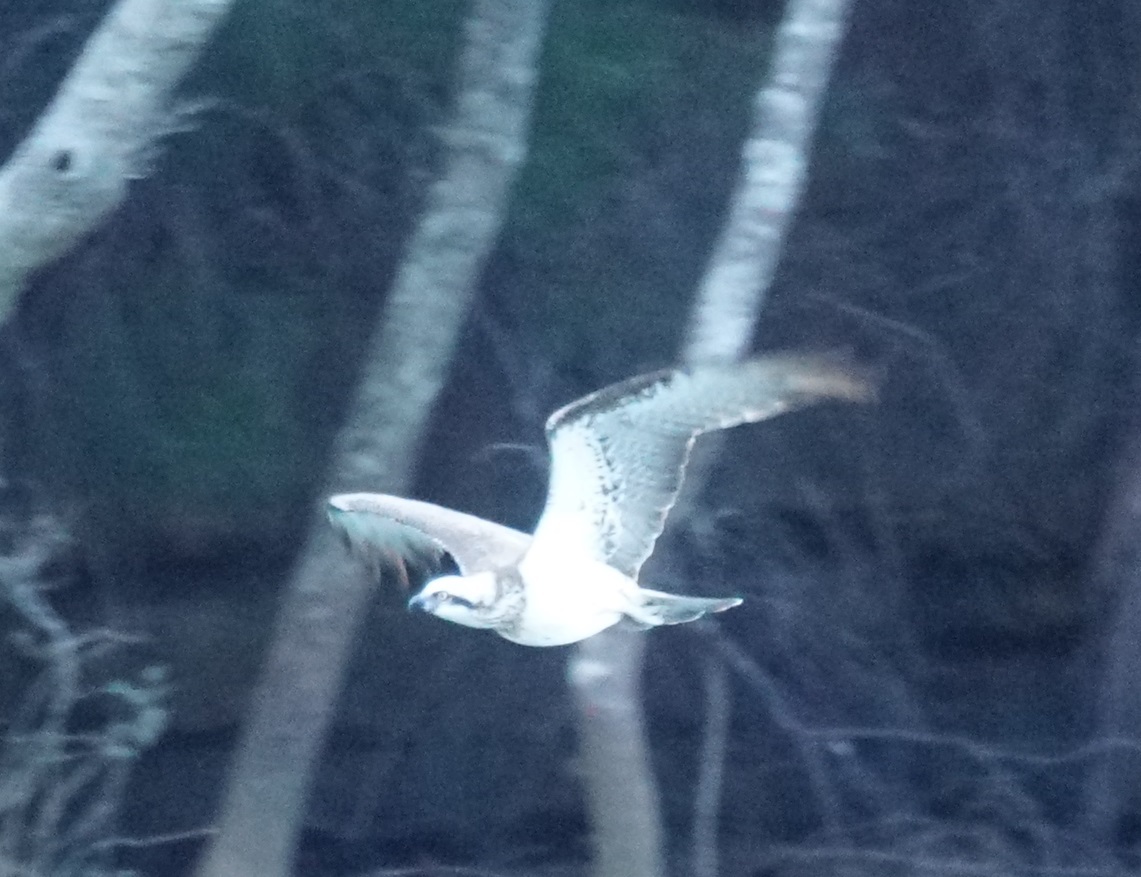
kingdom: Animalia
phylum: Chordata
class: Aves
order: Accipitriformes
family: Pandionidae
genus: Pandion
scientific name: Pandion haliaetus
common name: Osprey
